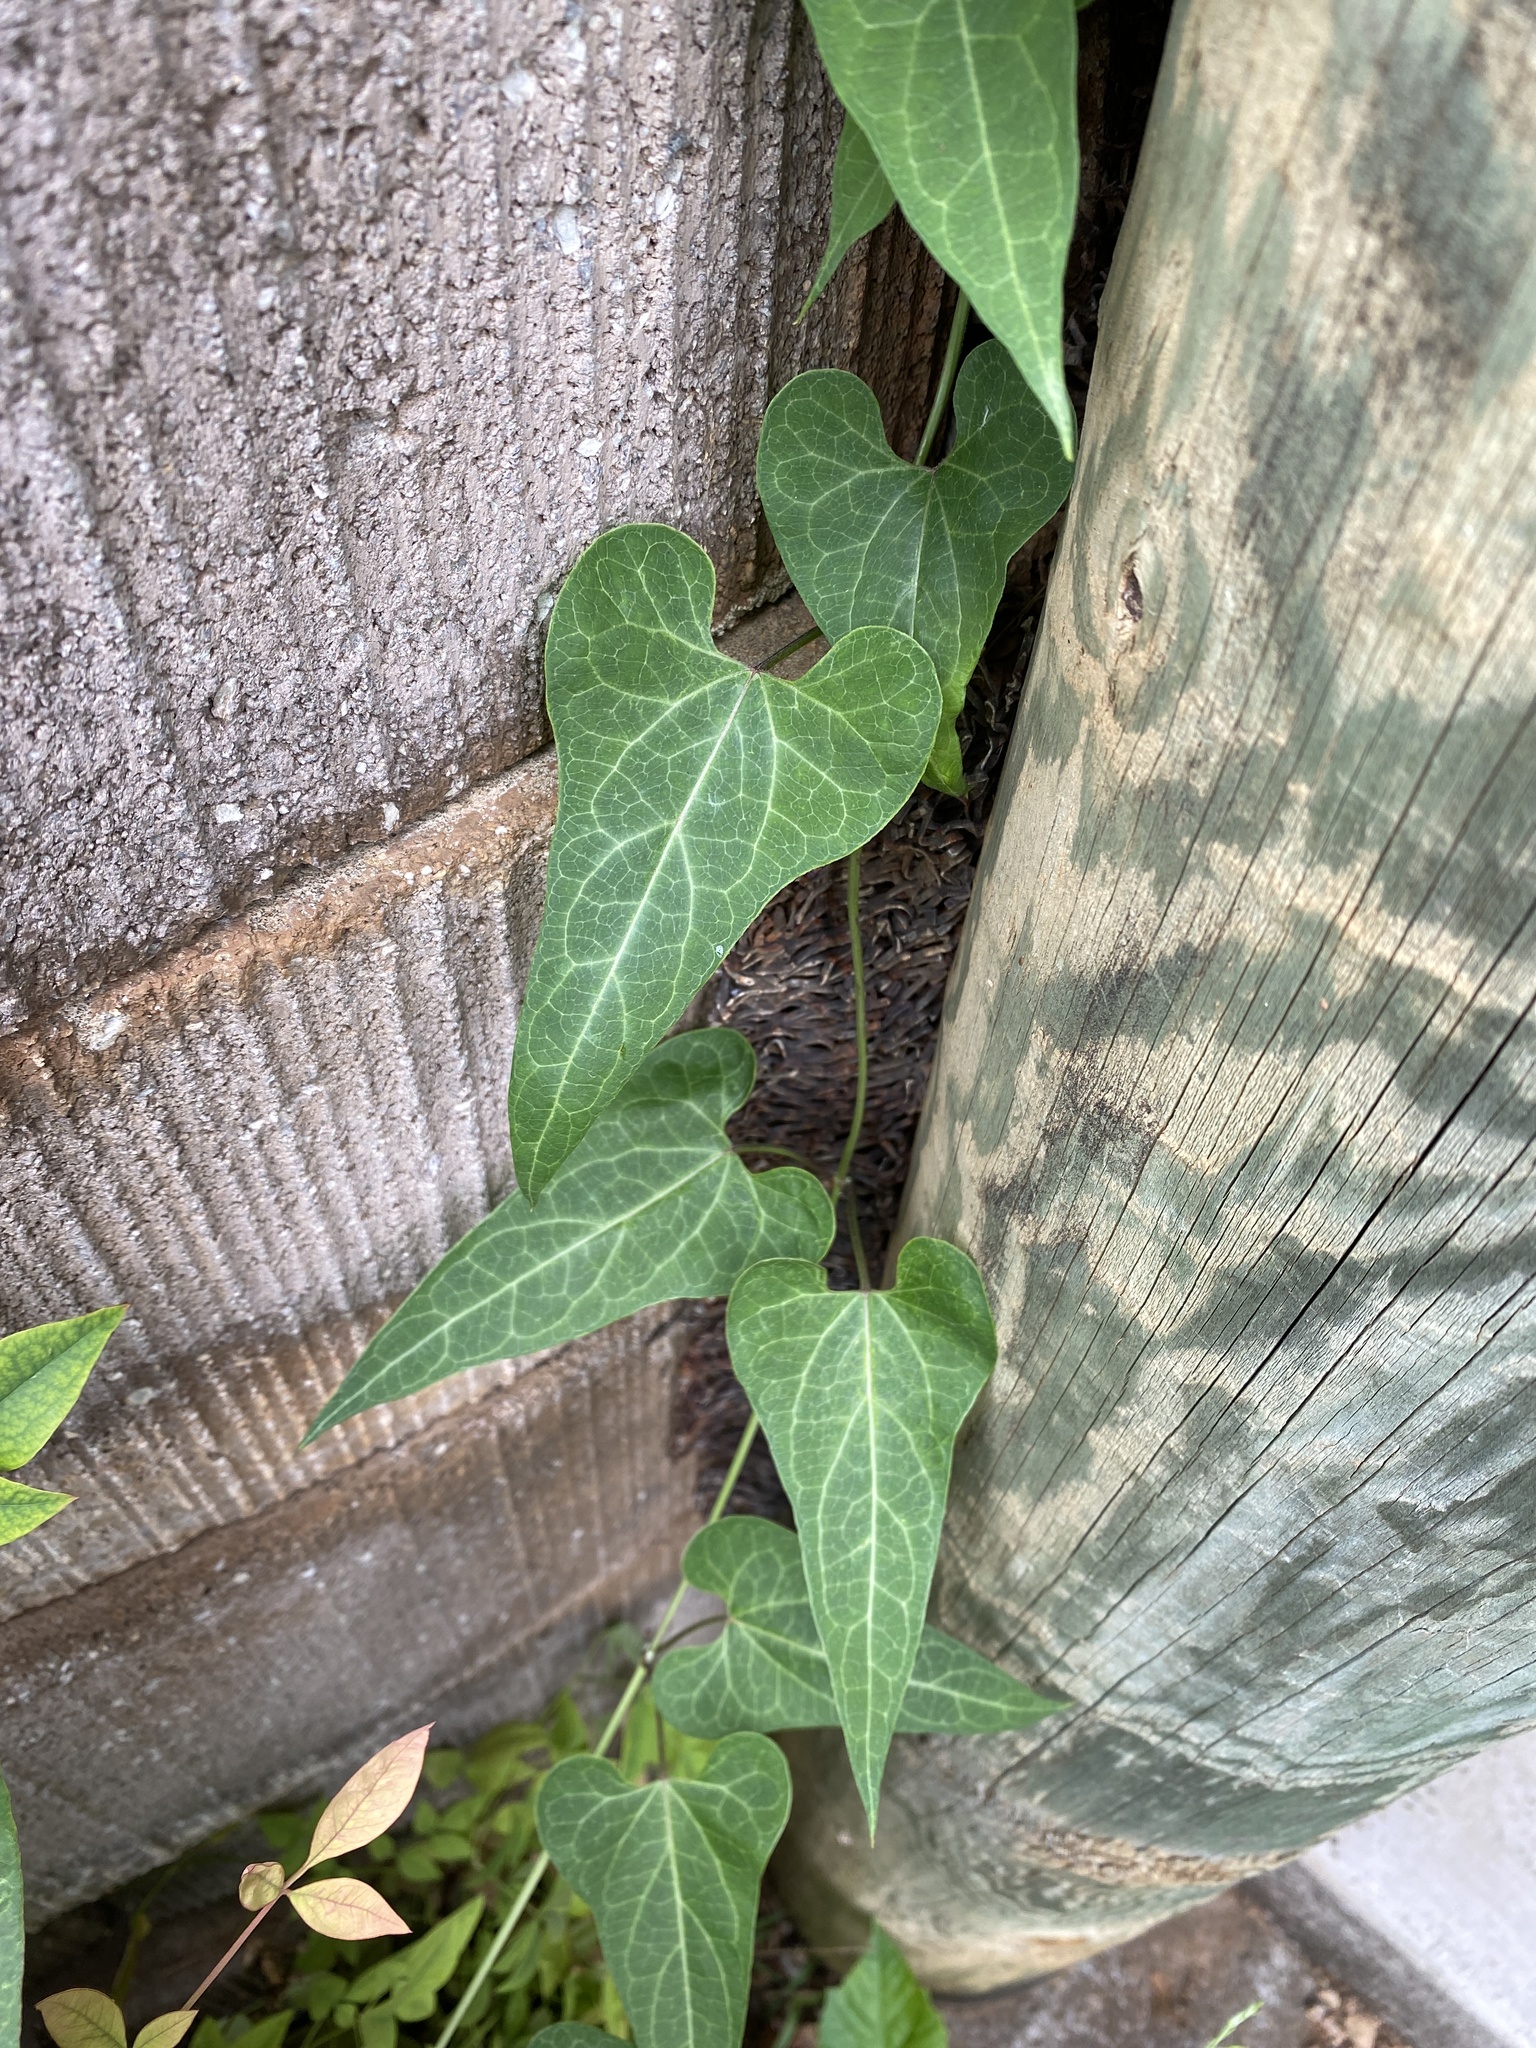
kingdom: Plantae
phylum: Tracheophyta
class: Magnoliopsida
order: Gentianales
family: Apocynaceae
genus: Cynanchum
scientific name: Cynanchum laeve
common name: Sandvine
